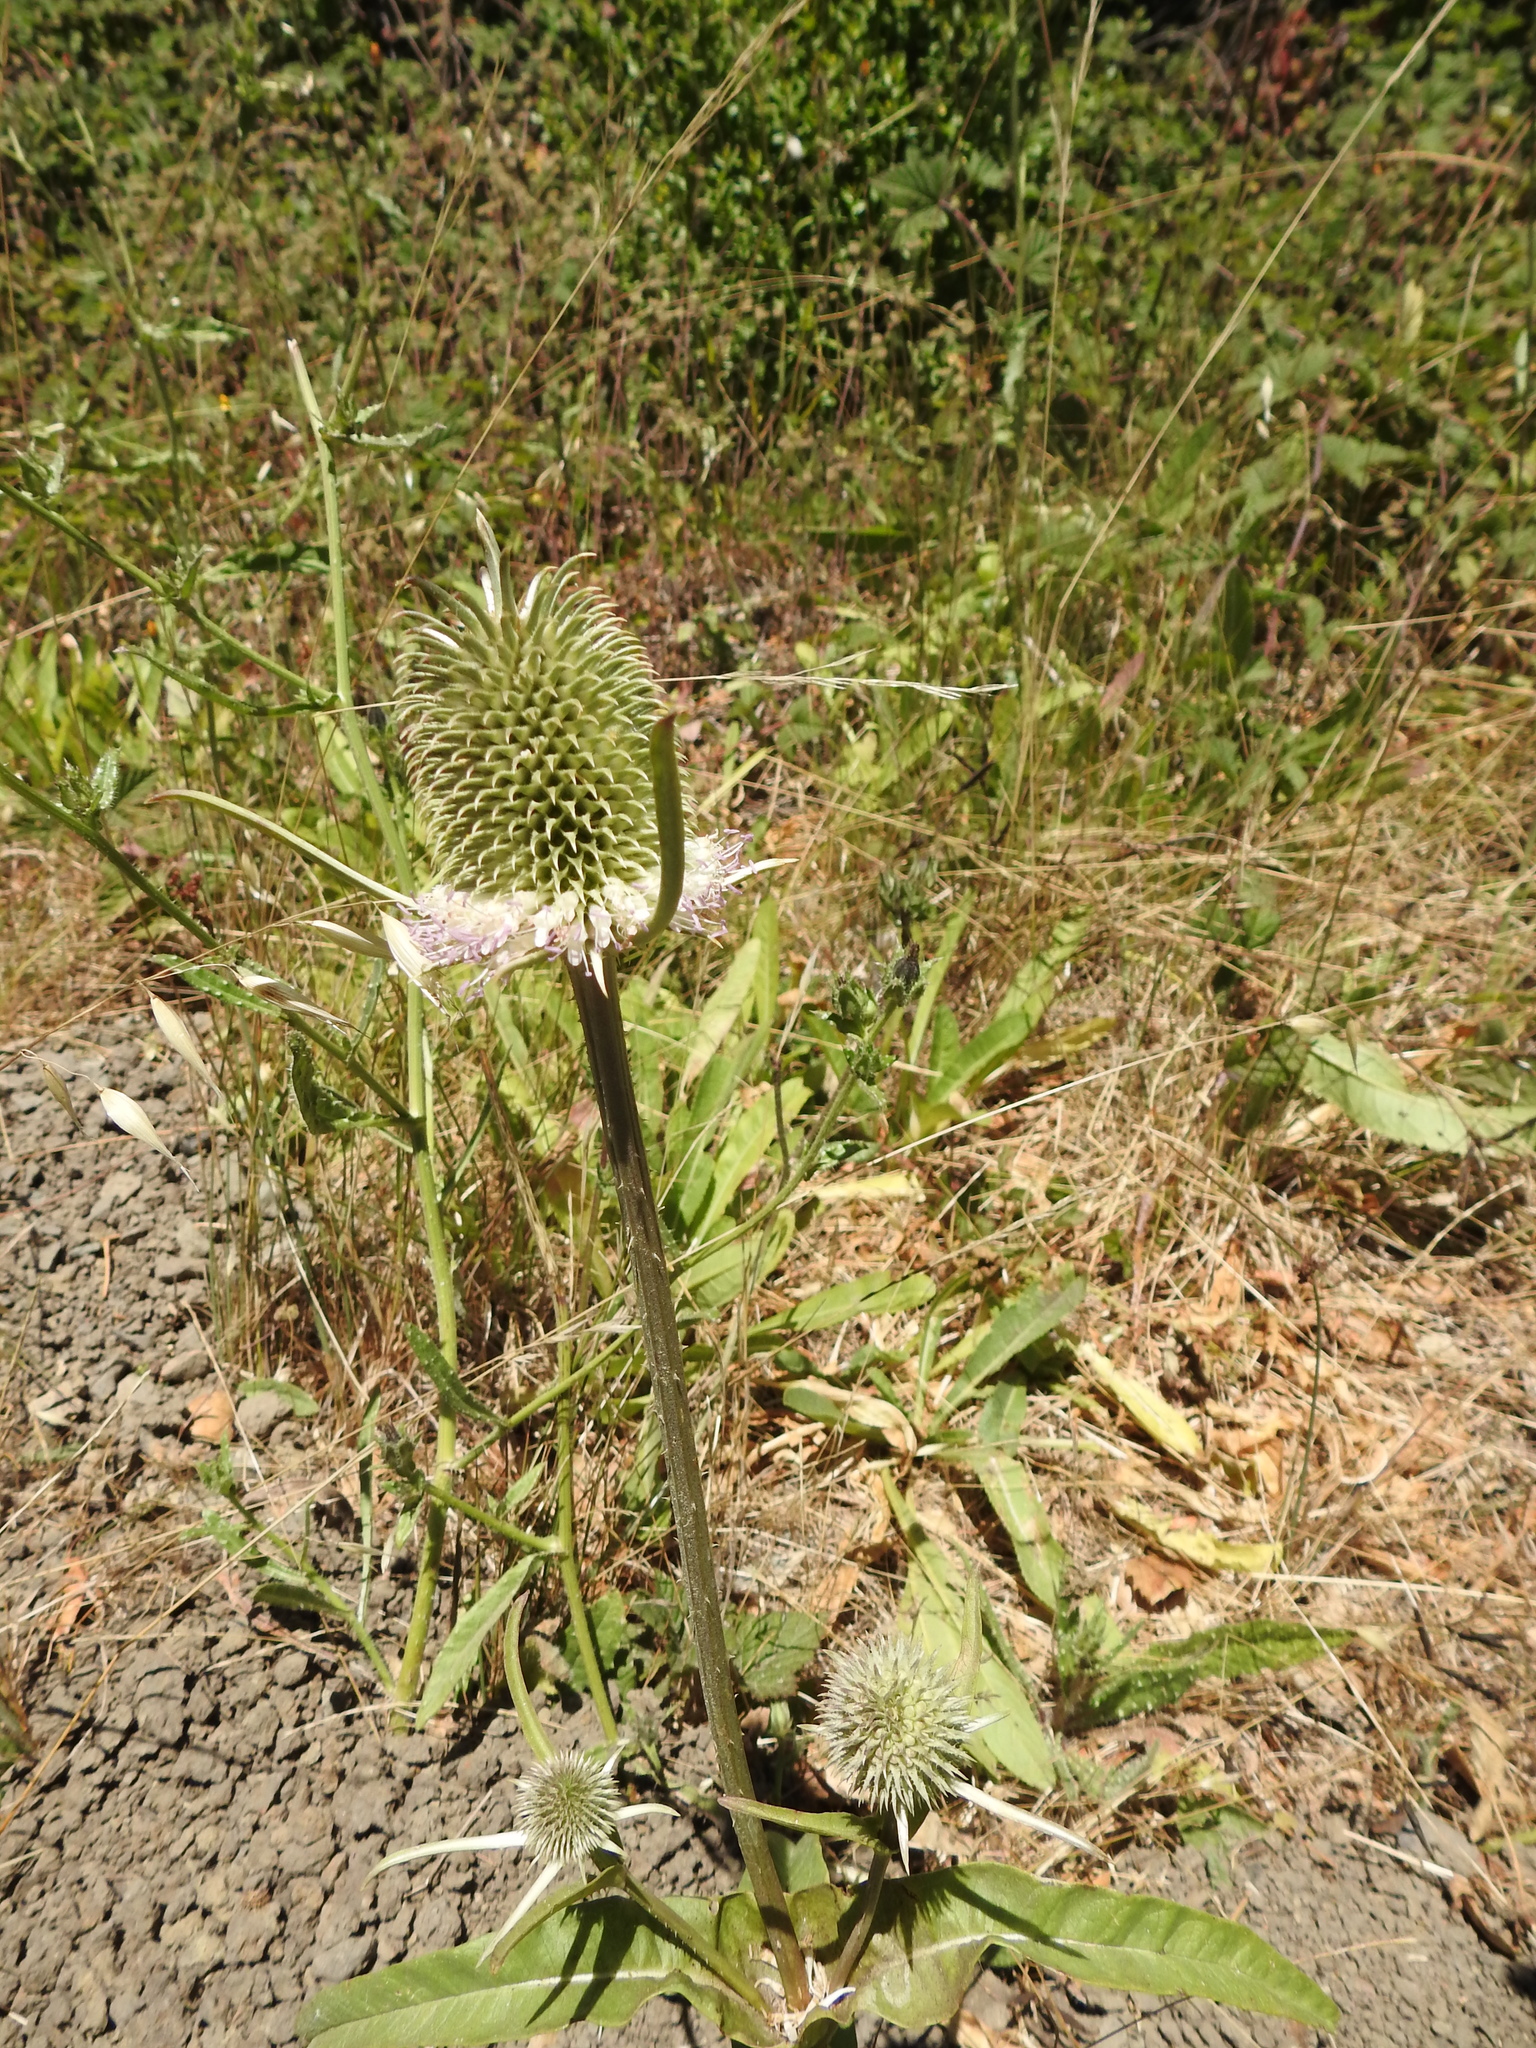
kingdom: Plantae
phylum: Tracheophyta
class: Magnoliopsida
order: Dipsacales
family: Caprifoliaceae
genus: Dipsacus
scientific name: Dipsacus sativus
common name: Fuller's teasel
